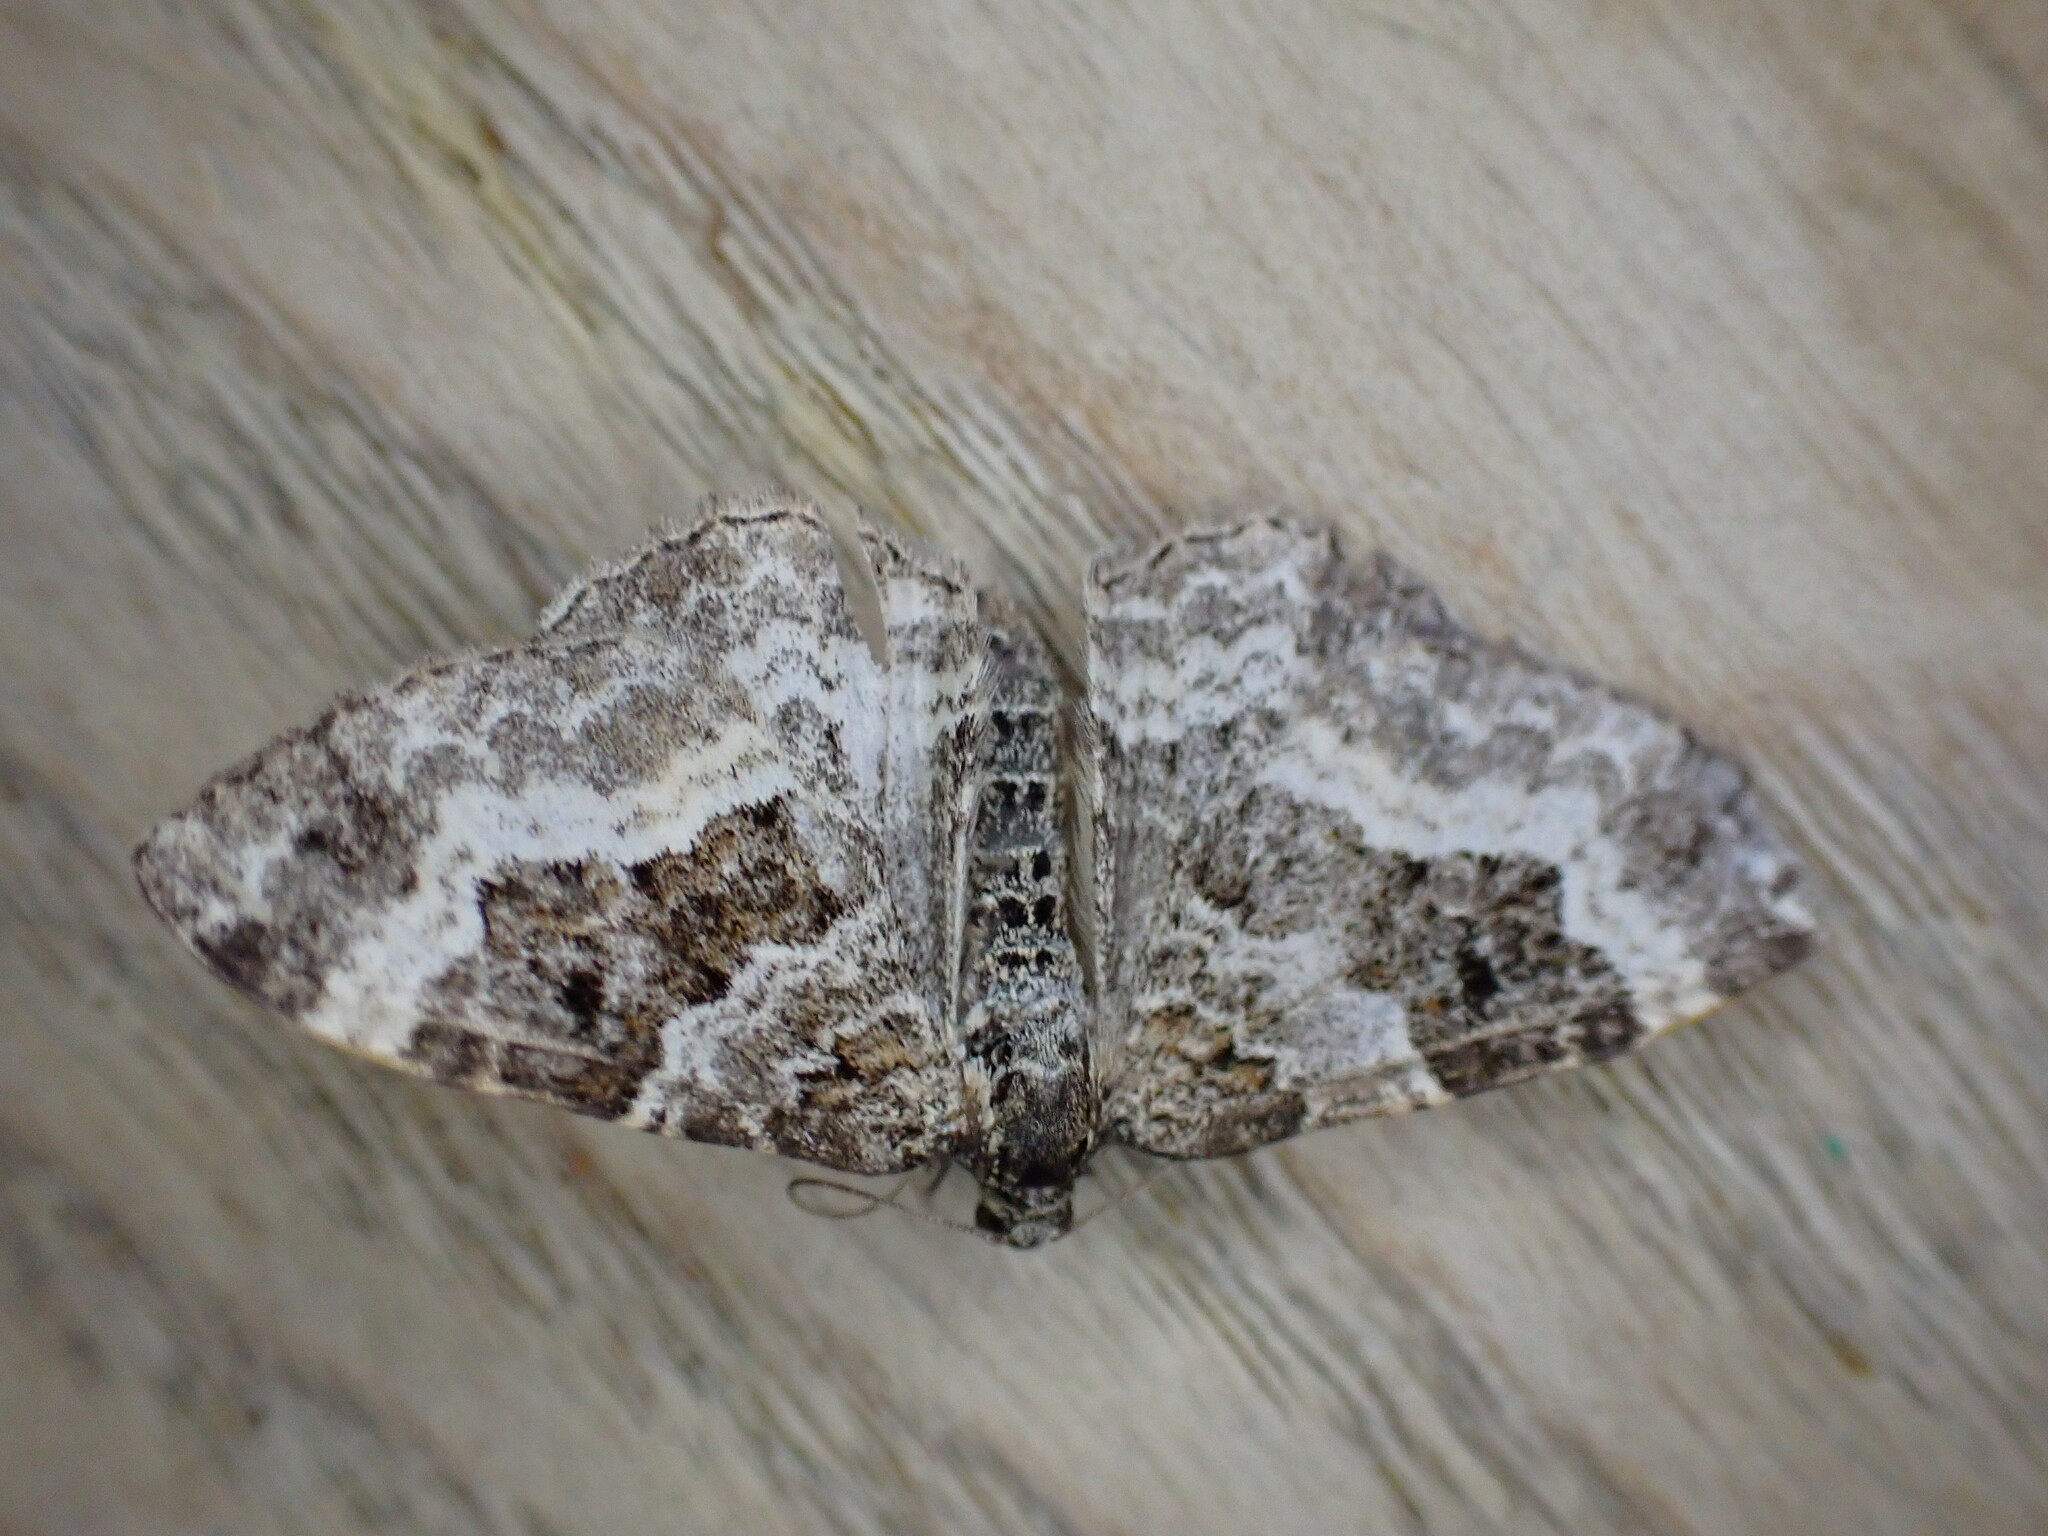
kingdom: Animalia
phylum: Arthropoda
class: Insecta
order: Lepidoptera
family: Geometridae
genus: Epirrhoe
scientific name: Epirrhoe alternata
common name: Common carpet
